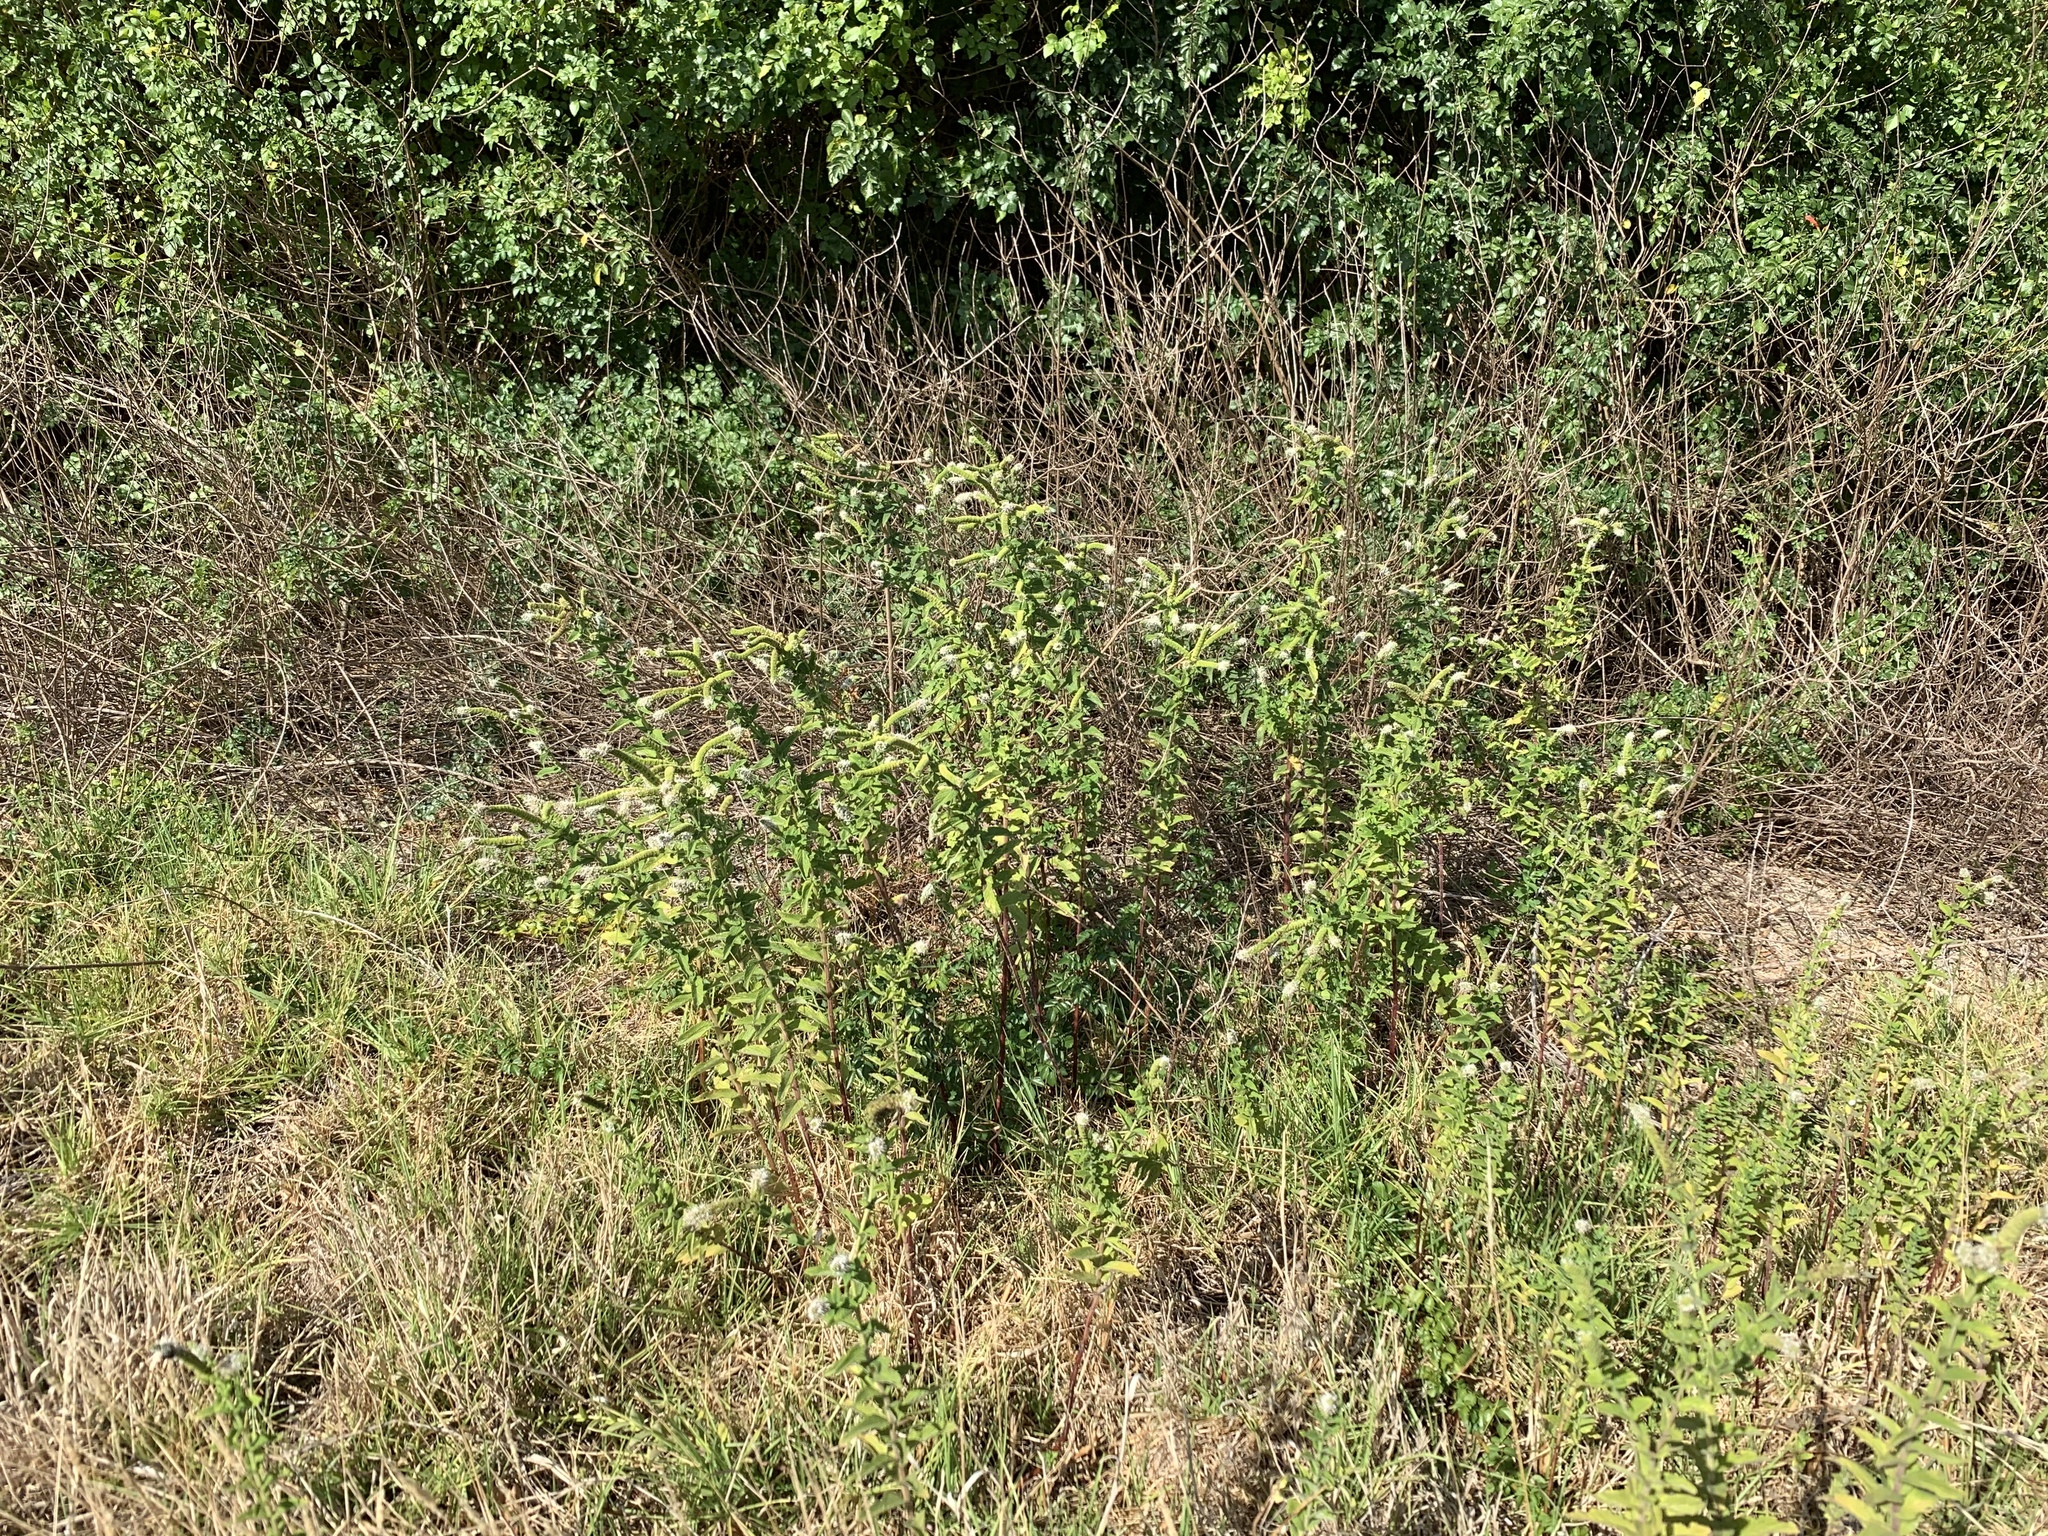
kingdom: Plantae
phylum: Tracheophyta
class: Magnoliopsida
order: Lamiales
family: Lamiaceae
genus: Mentha
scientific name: Mentha longifolia
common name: Horse mint
